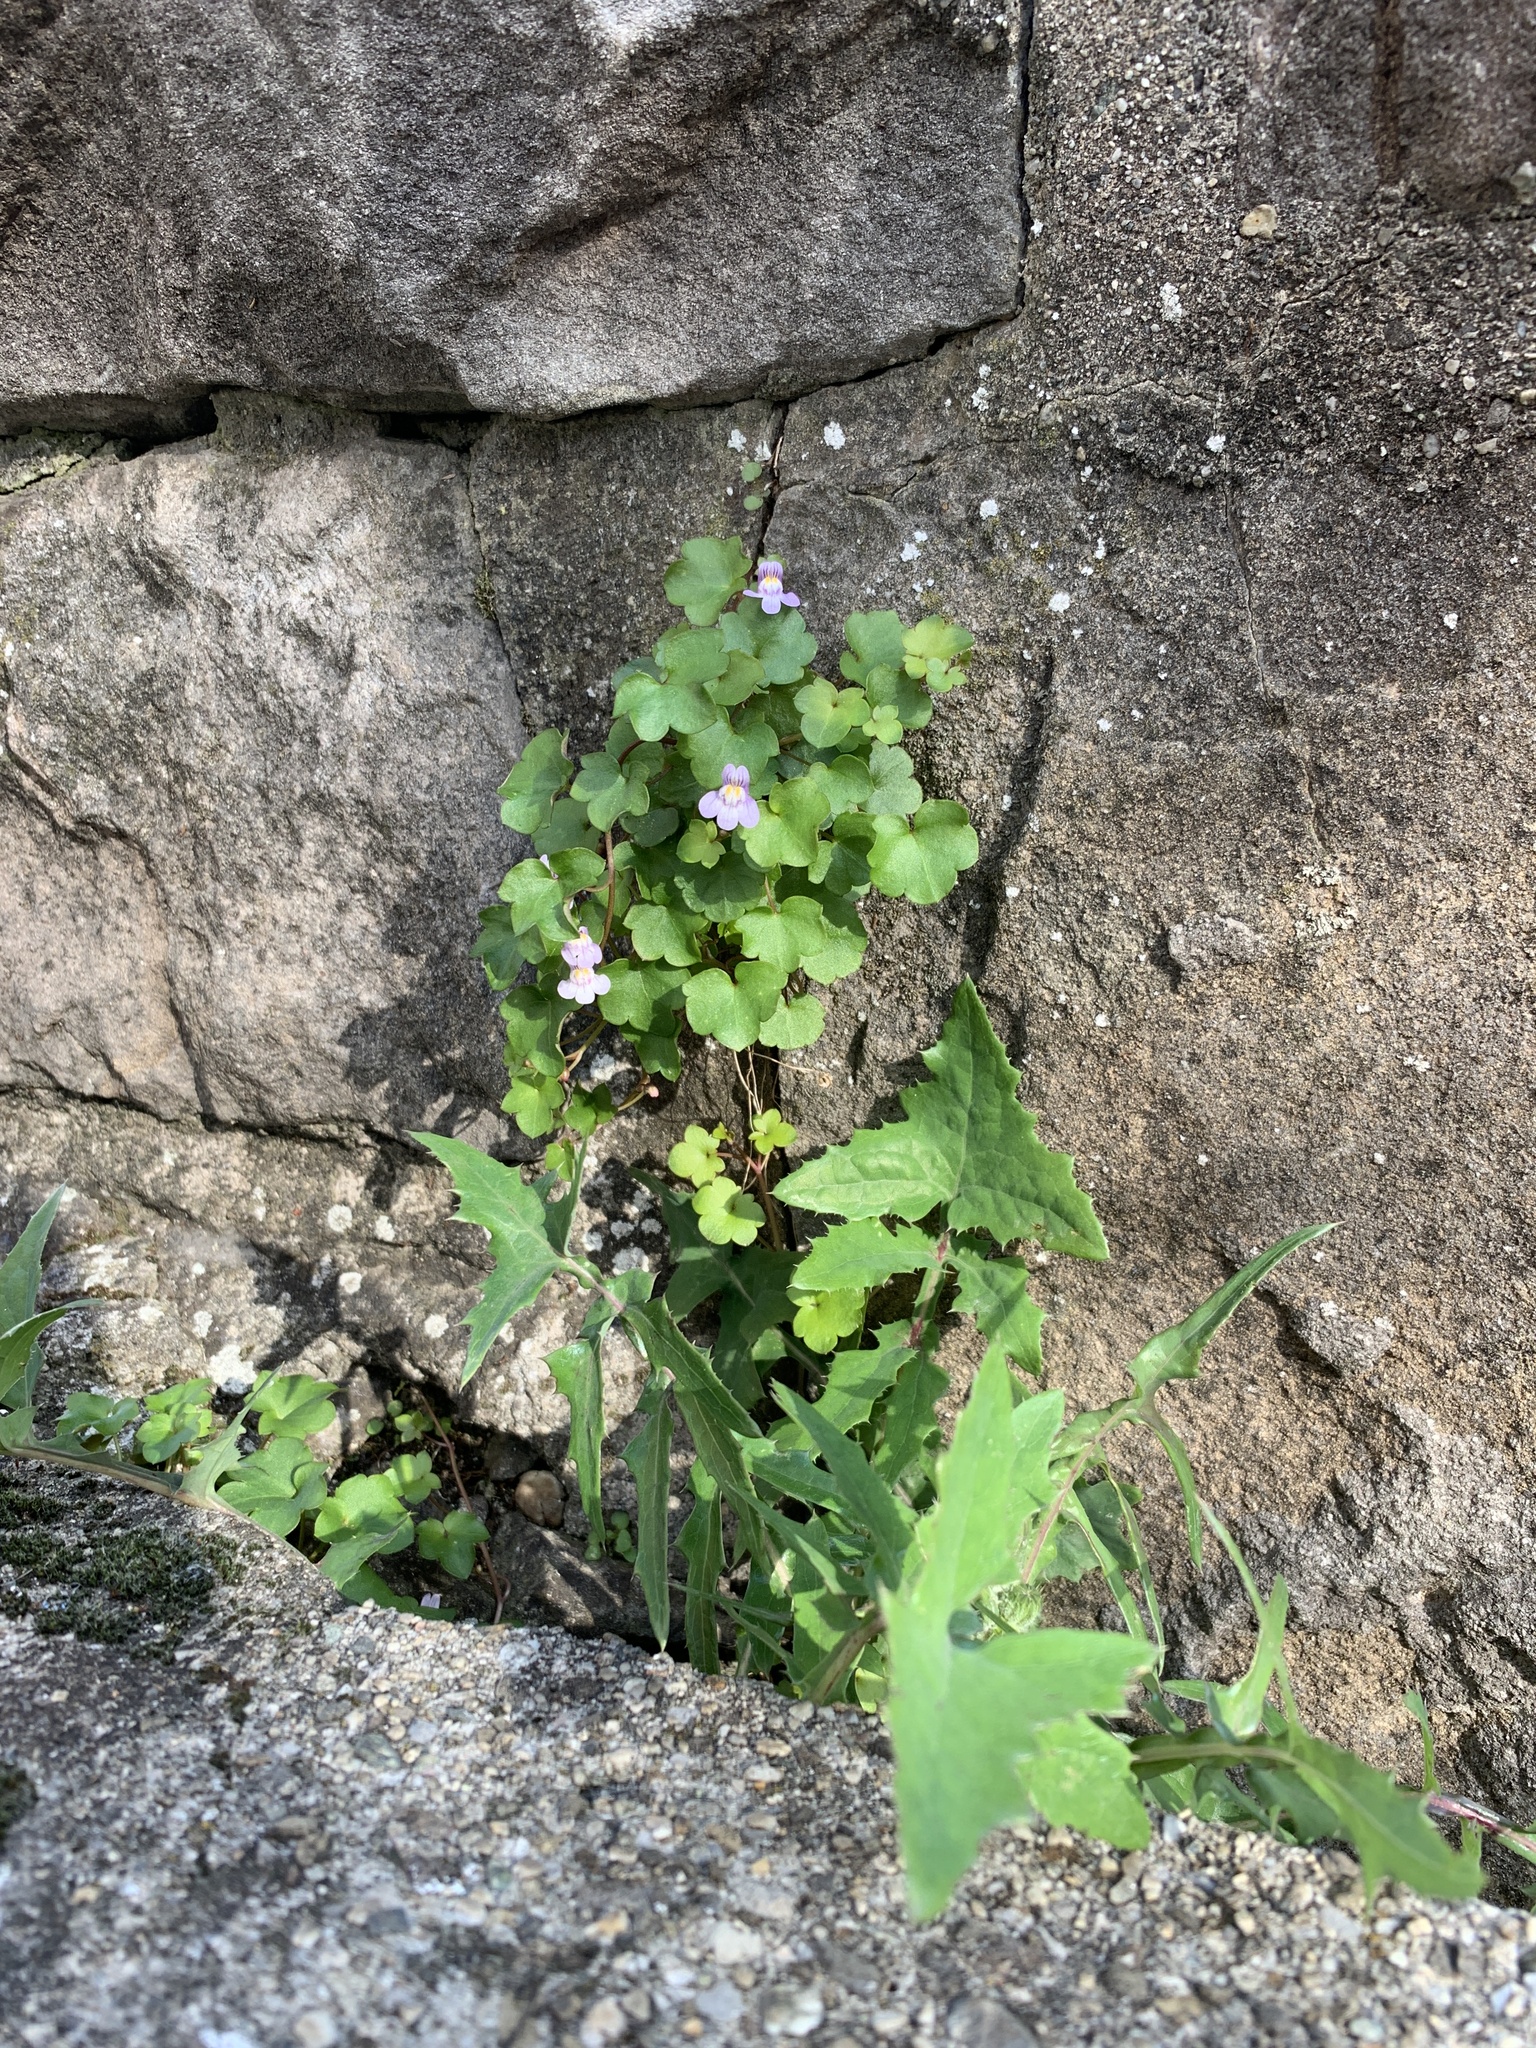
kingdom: Plantae
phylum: Tracheophyta
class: Magnoliopsida
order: Lamiales
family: Plantaginaceae
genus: Cymbalaria
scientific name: Cymbalaria muralis
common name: Ivy-leaved toadflax
